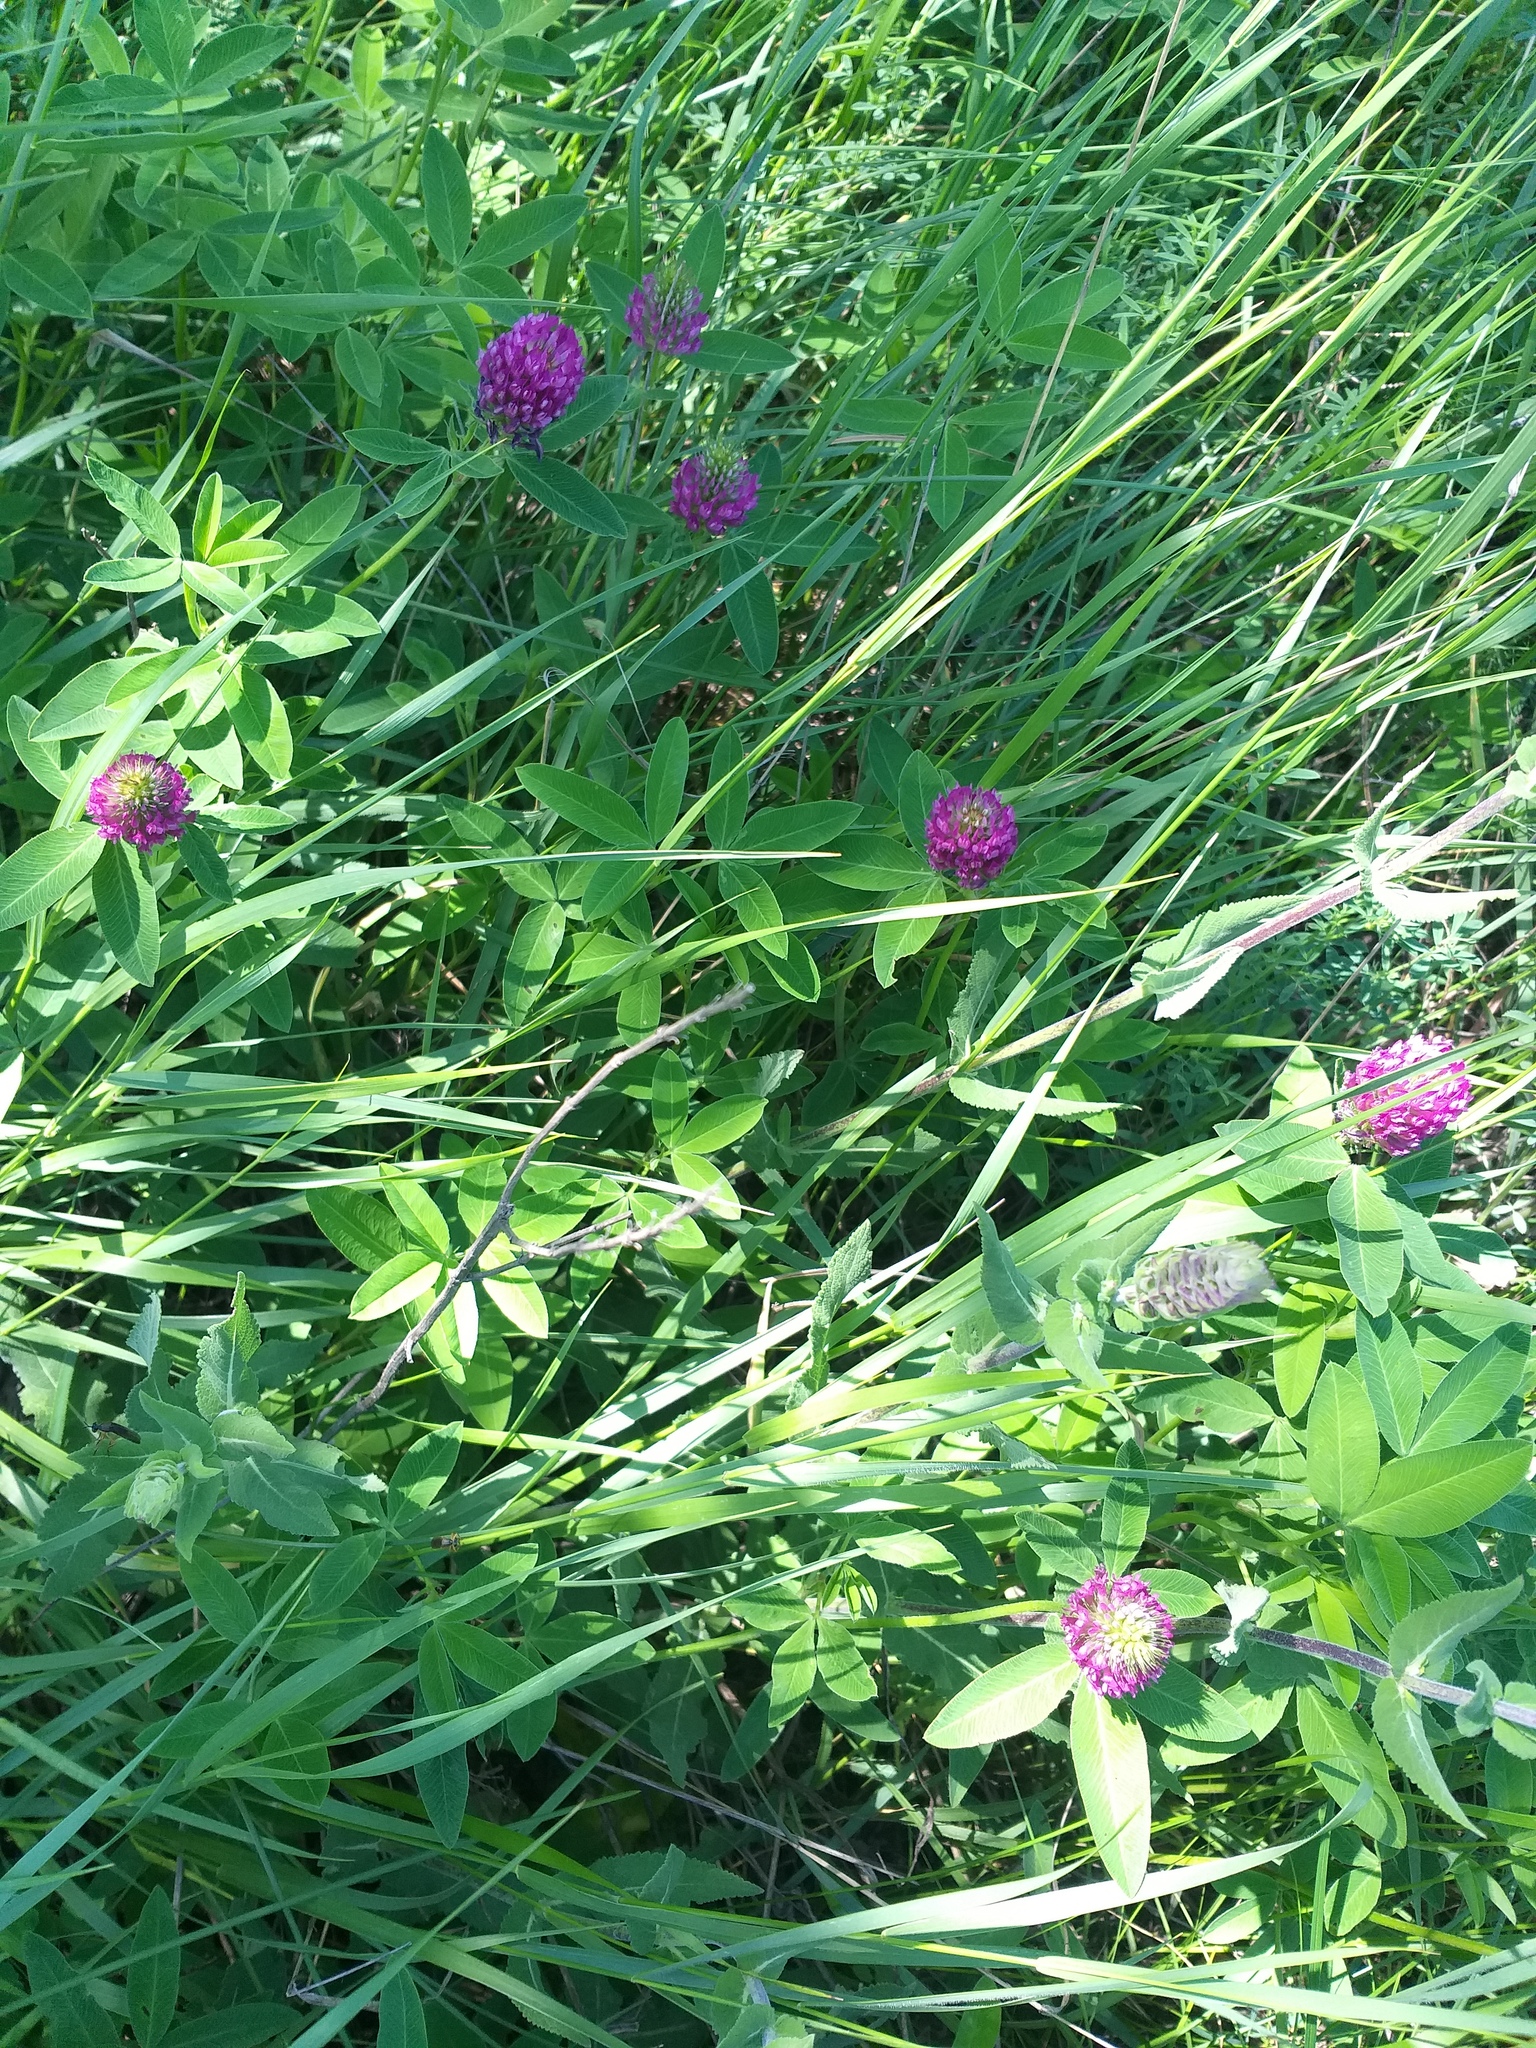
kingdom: Plantae
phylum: Tracheophyta
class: Magnoliopsida
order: Fabales
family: Fabaceae
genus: Trifolium
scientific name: Trifolium medium
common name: Zigzag clover
